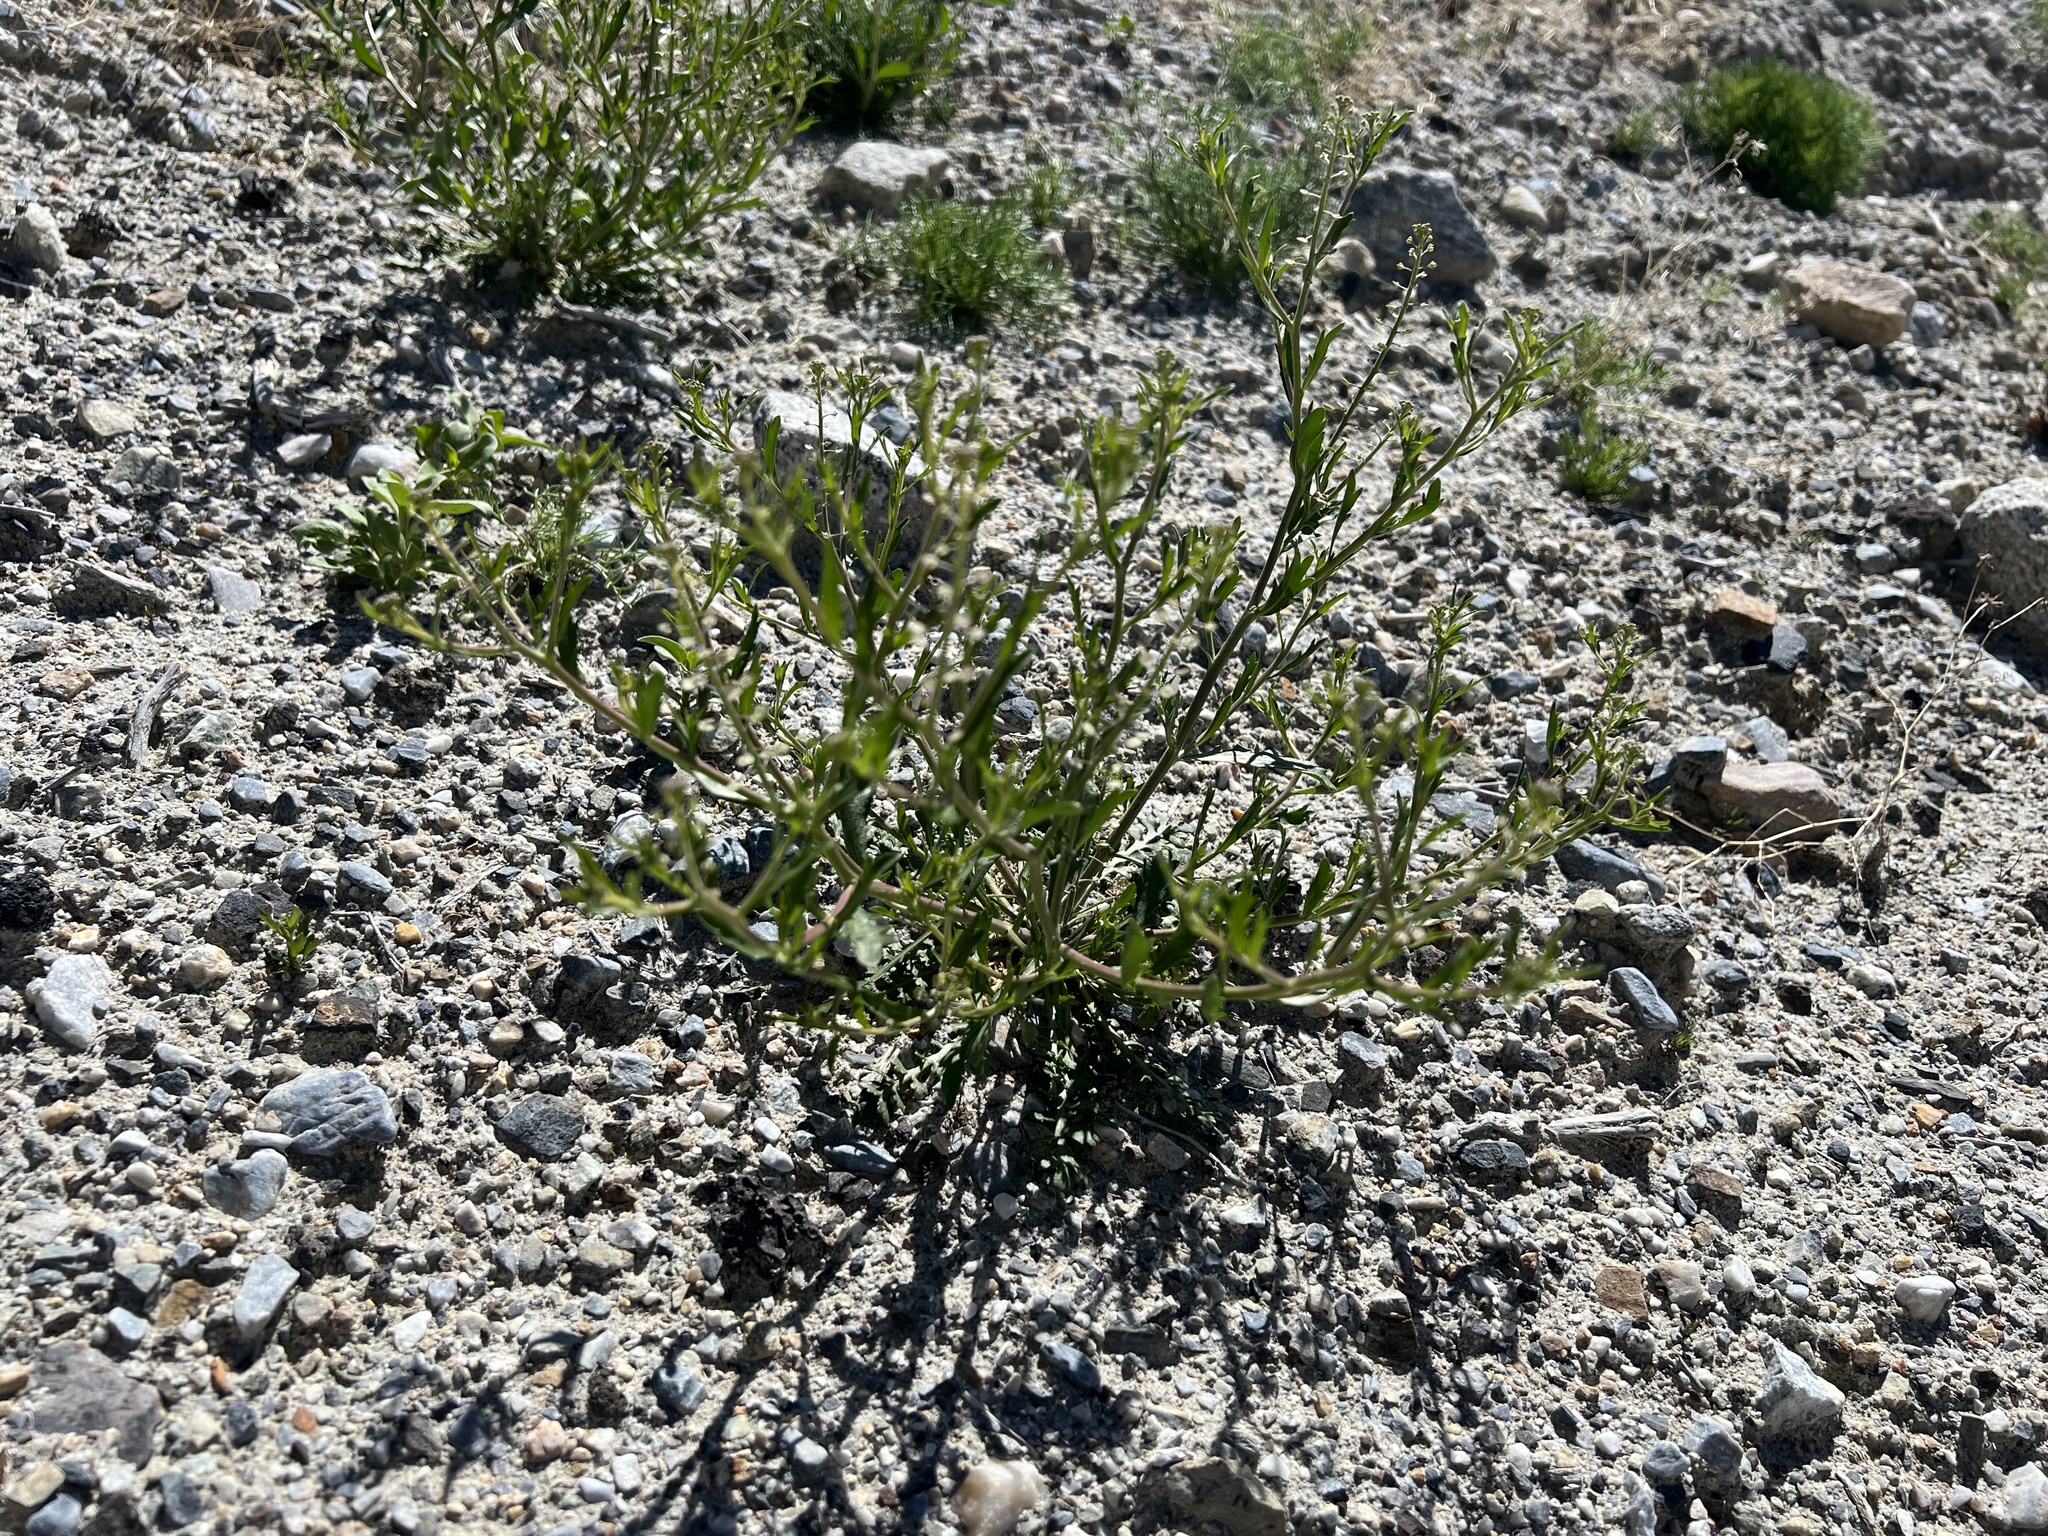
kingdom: Plantae
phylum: Tracheophyta
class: Magnoliopsida
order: Brassicales
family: Brassicaceae
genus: Lepidium
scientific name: Lepidium lasiocarpum
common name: Hairy-pod pepperwort
